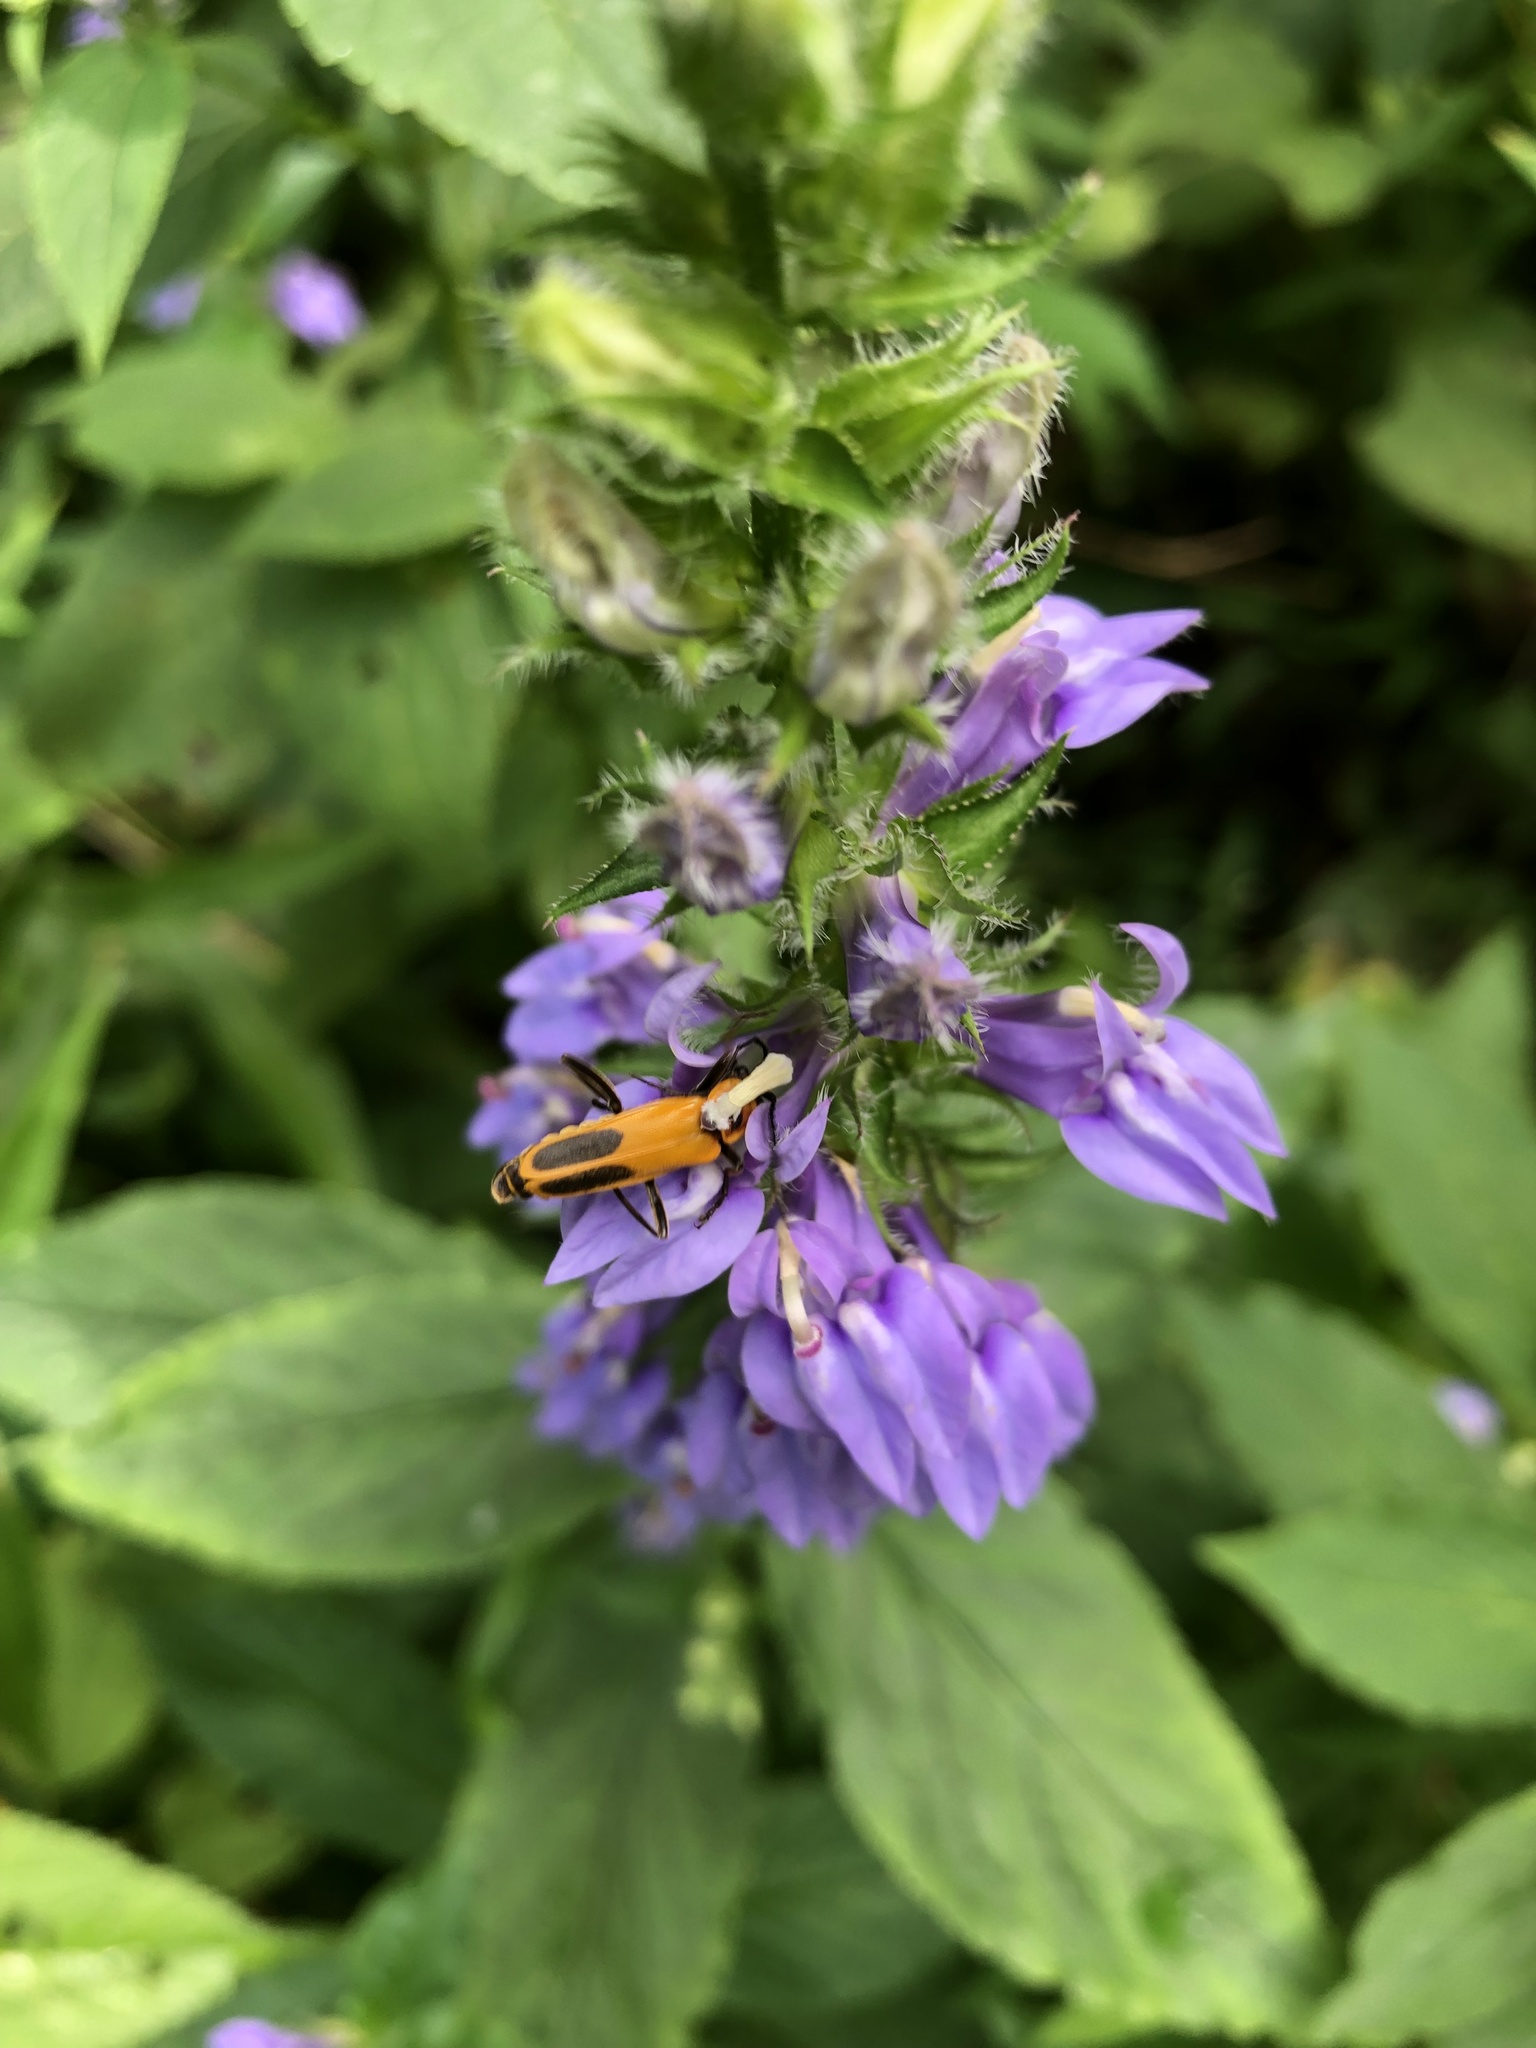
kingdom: Animalia
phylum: Arthropoda
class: Insecta
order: Coleoptera
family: Cantharidae
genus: Chauliognathus
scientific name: Chauliognathus pensylvanicus
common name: Goldenrod soldier beetle
